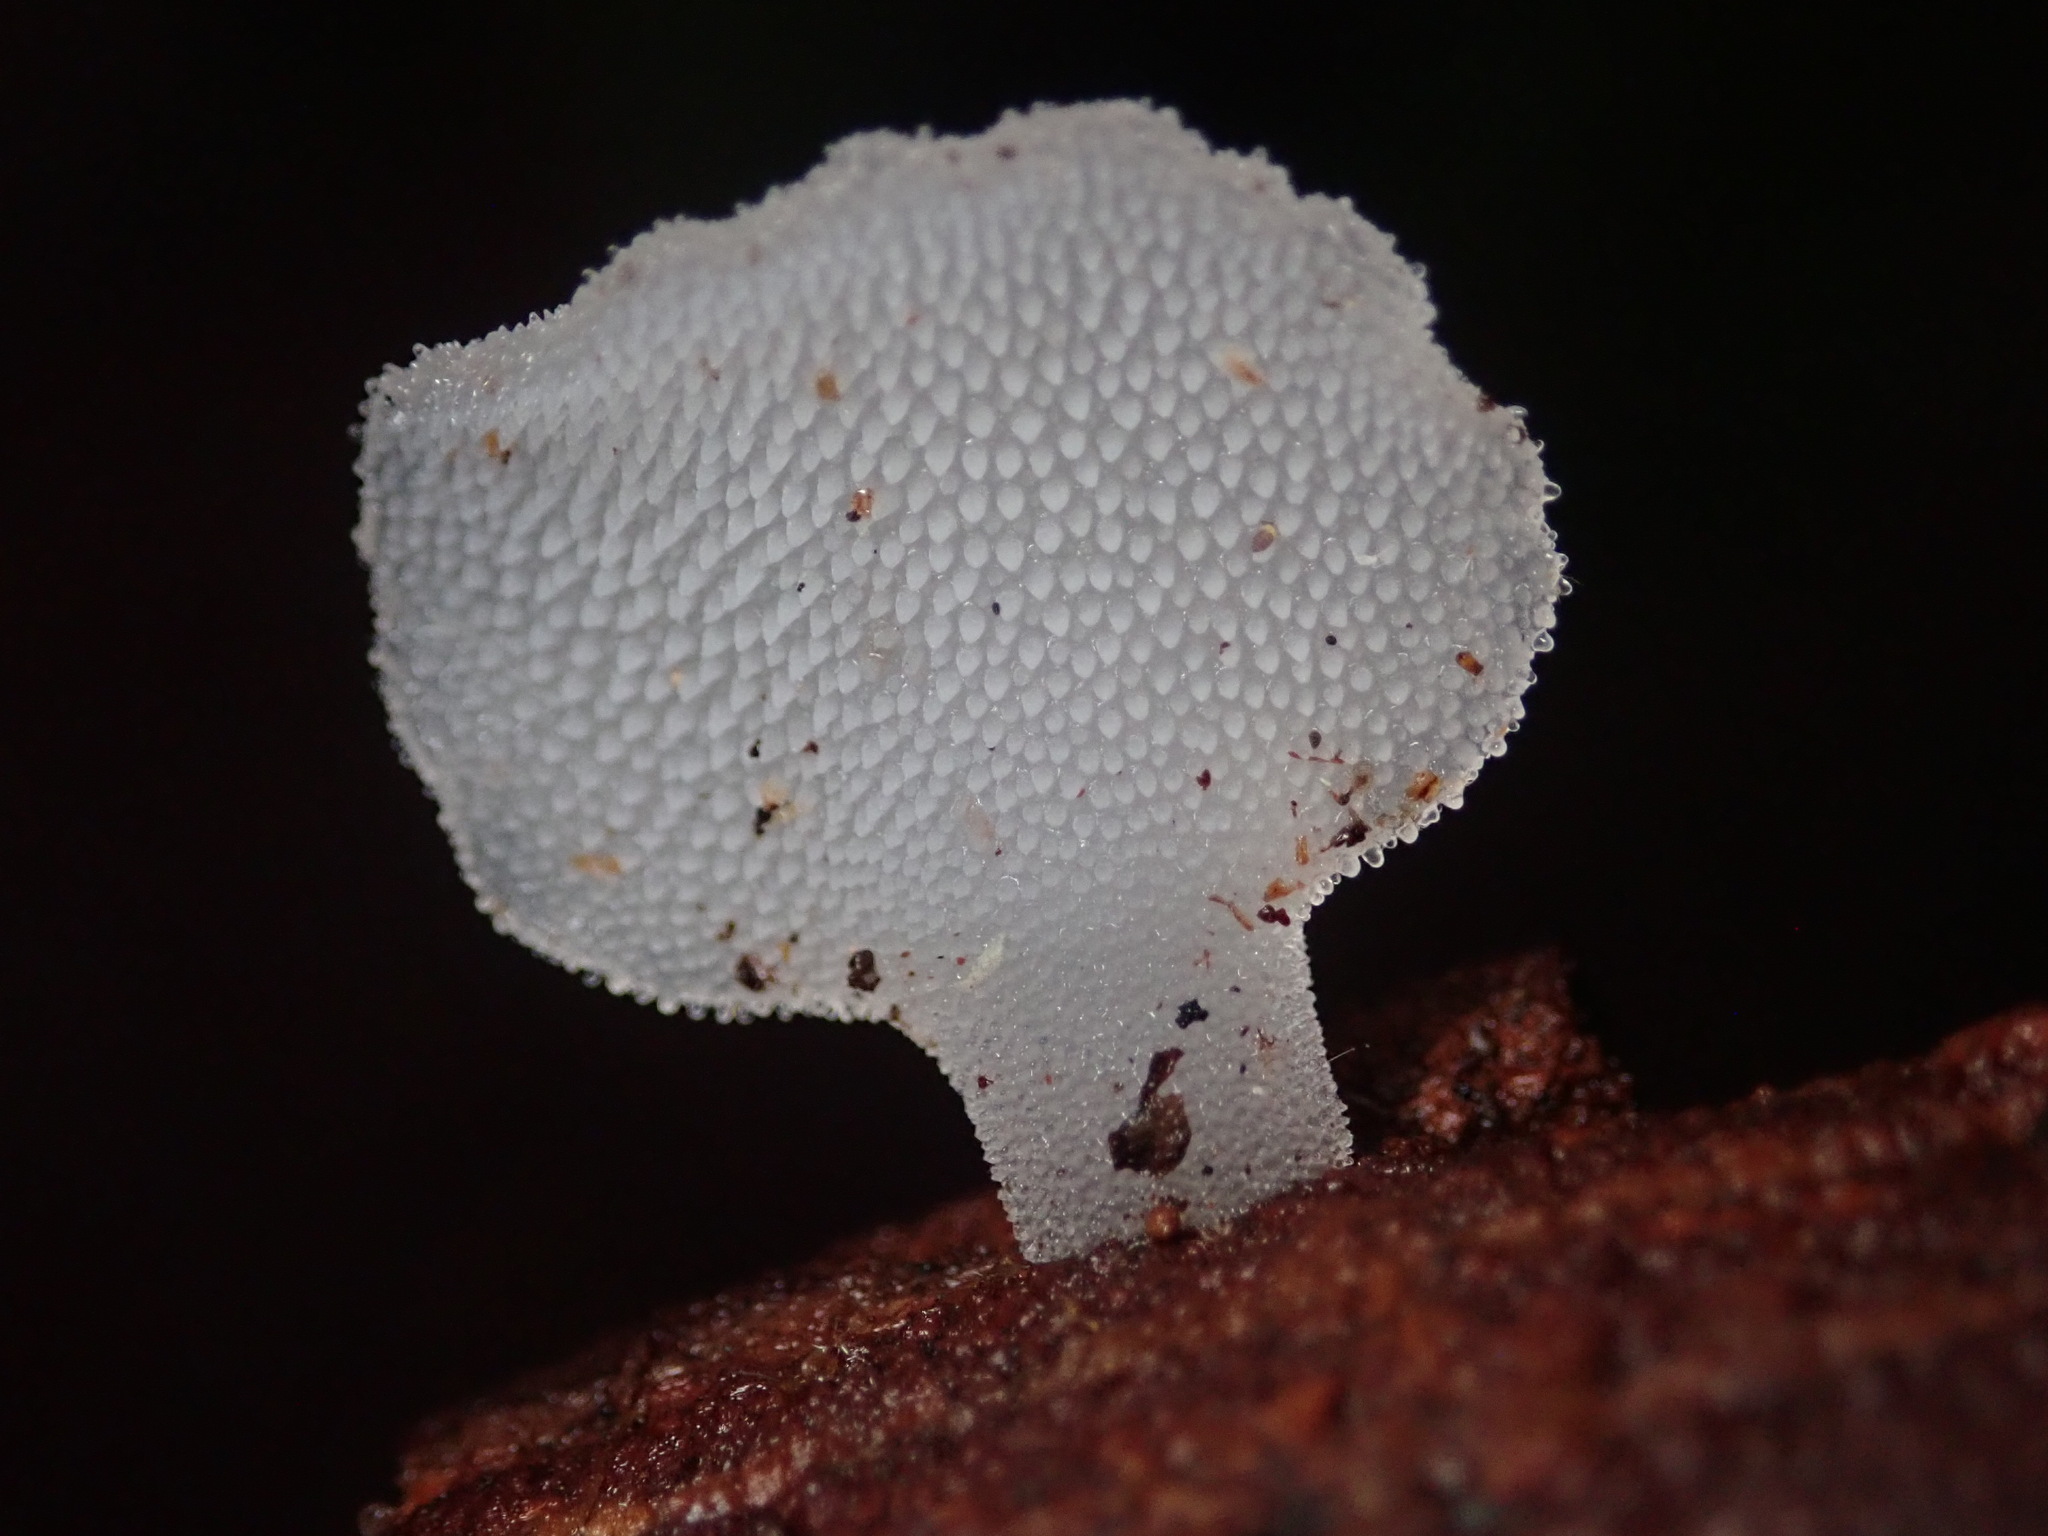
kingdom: Fungi
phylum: Basidiomycota
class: Agaricomycetes
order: Auriculariales
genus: Pseudohydnum
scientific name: Pseudohydnum gelatinosum
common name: Jelly tongue
